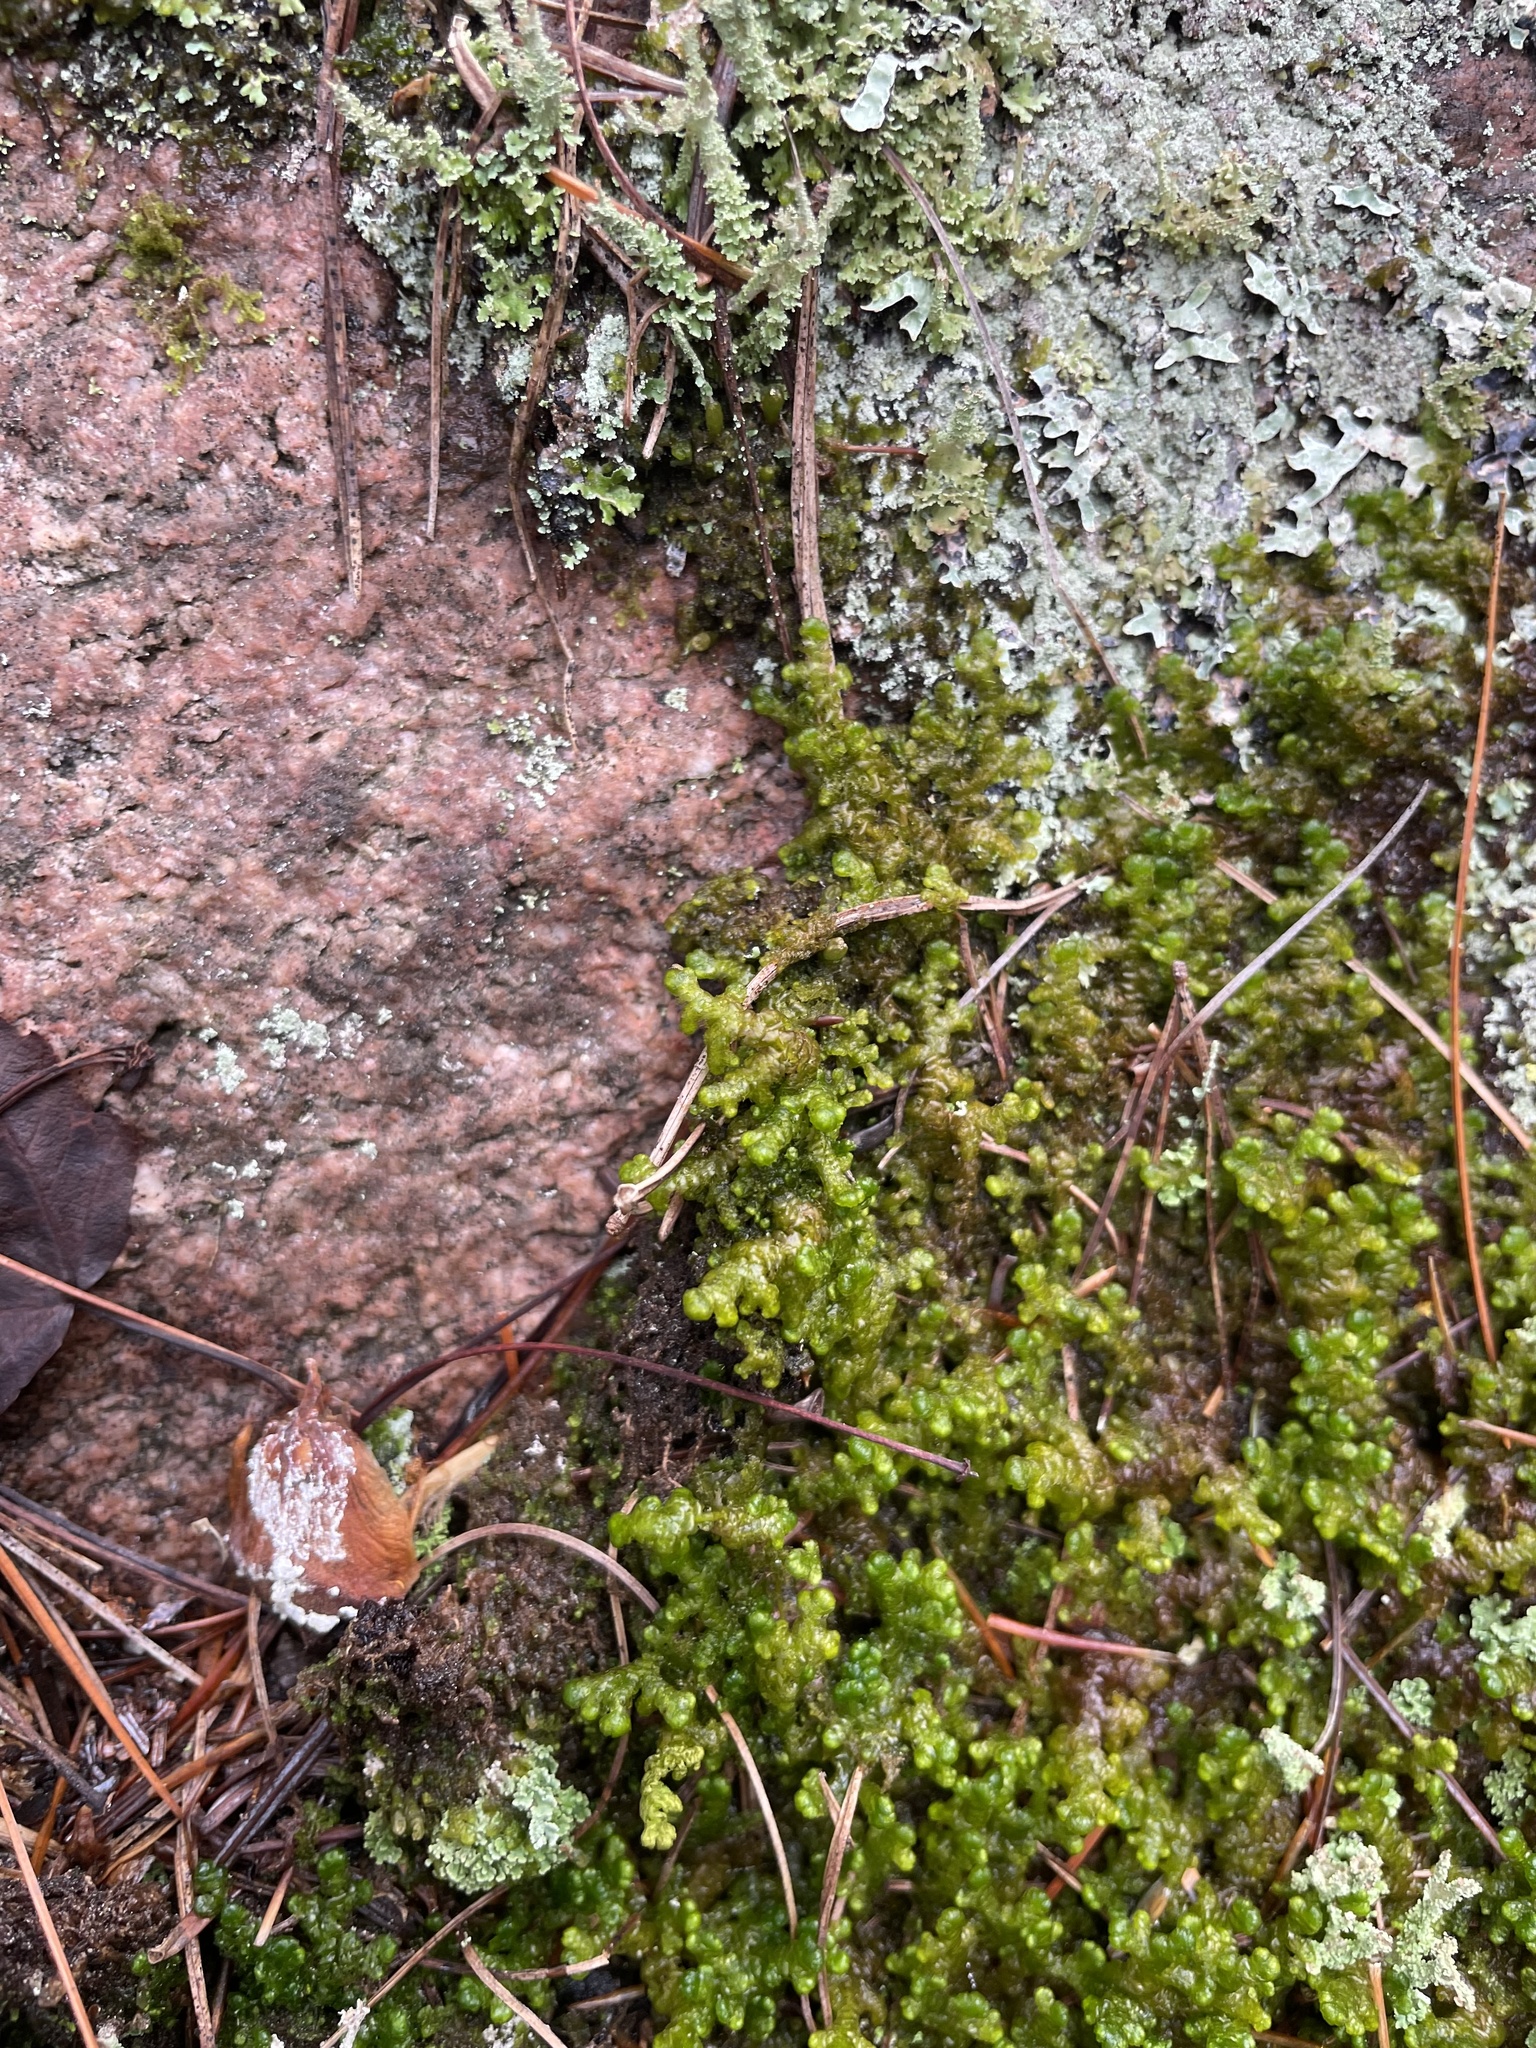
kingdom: Plantae
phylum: Marchantiophyta
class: Jungermanniopsida
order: Ptilidiales
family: Ptilidiaceae
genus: Ptilidium
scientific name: Ptilidium ciliare
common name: Ciliate fringewort
